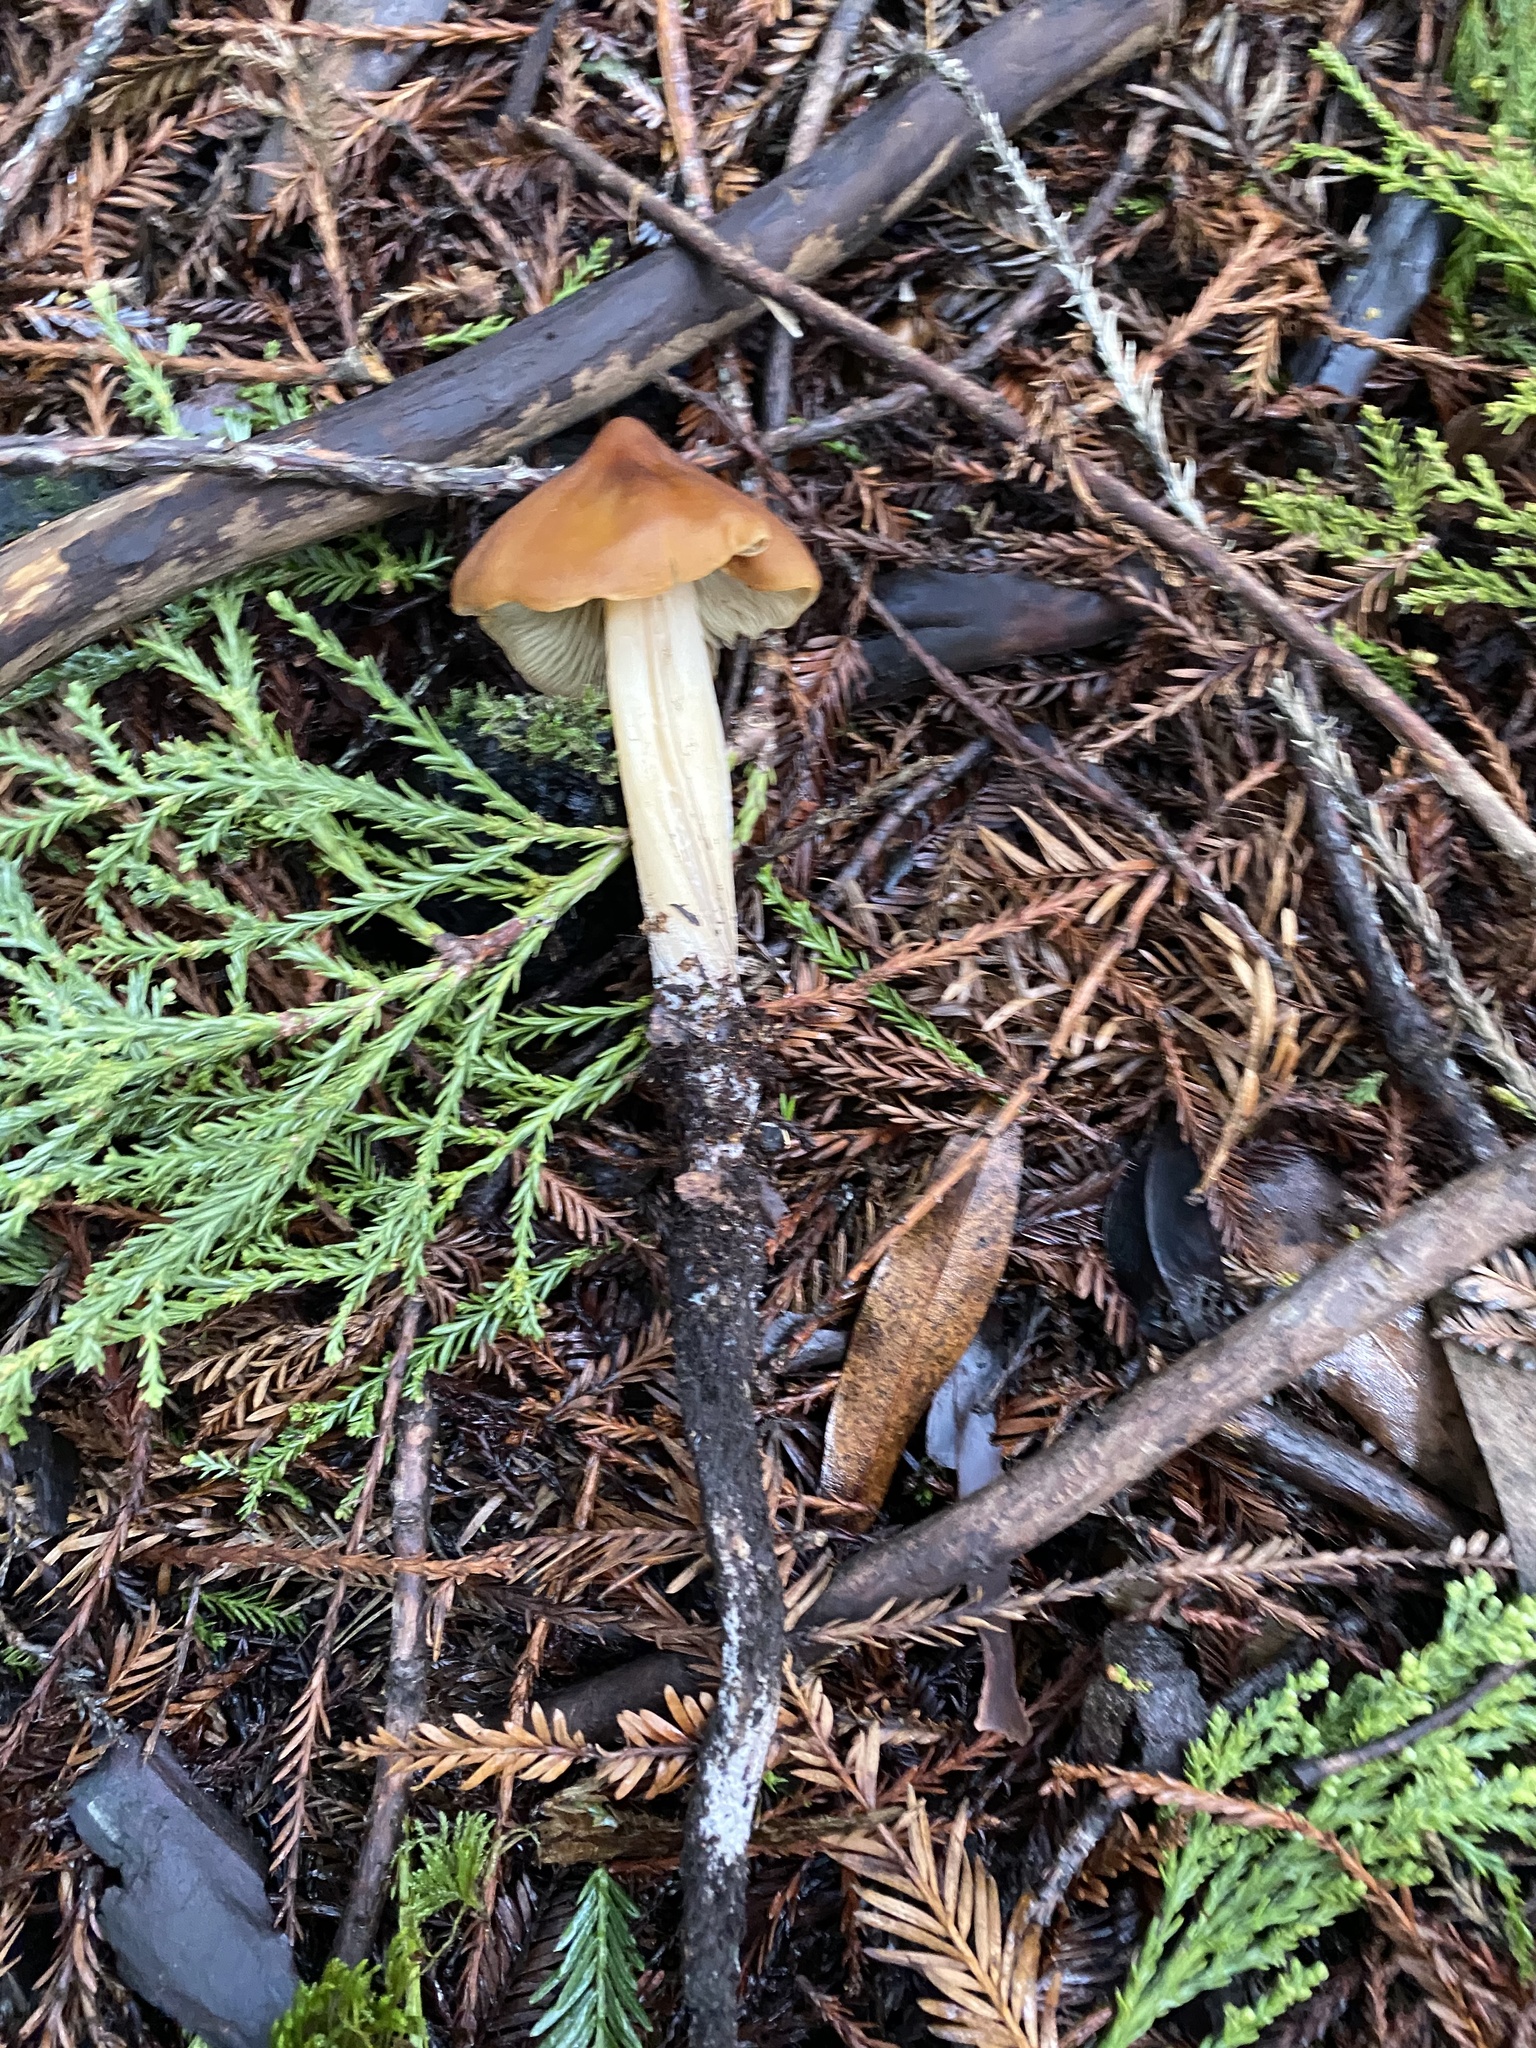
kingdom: Fungi
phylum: Basidiomycota
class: Agaricomycetes
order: Agaricales
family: Tricholomataceae
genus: Caulorhiza
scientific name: Caulorhiza umbonata
